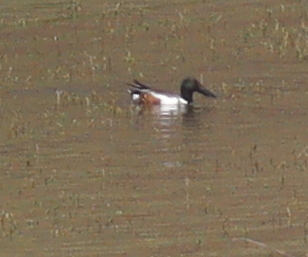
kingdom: Animalia
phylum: Chordata
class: Aves
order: Anseriformes
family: Anatidae
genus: Spatula
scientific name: Spatula clypeata
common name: Northern shoveler
